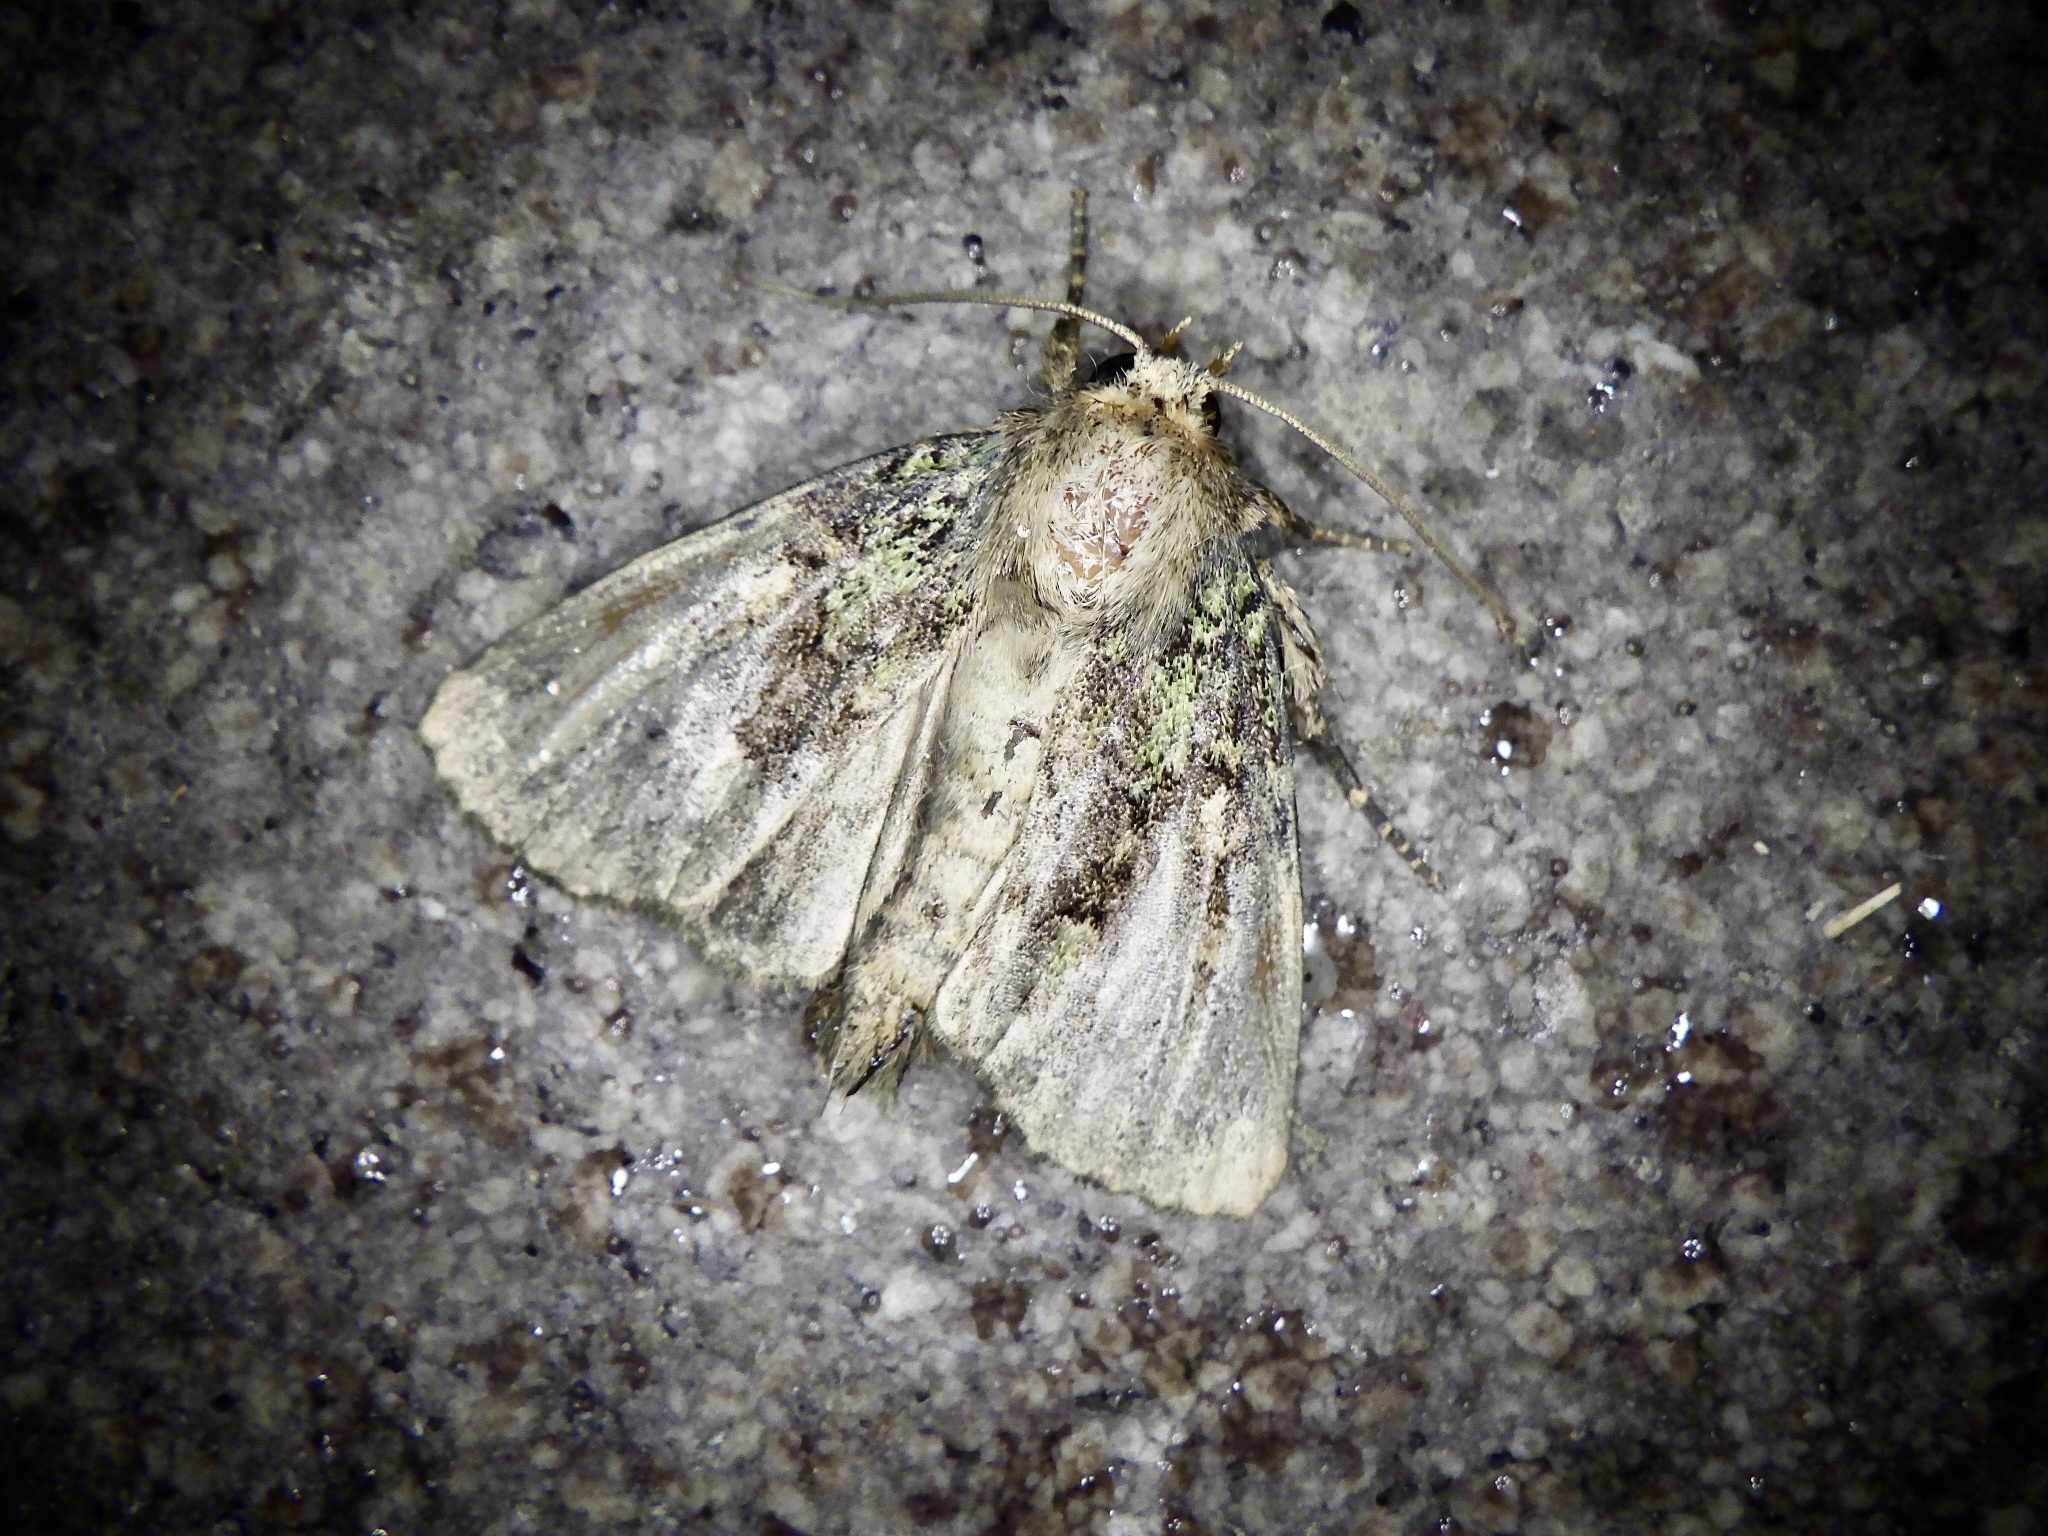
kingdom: Animalia
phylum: Arthropoda
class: Insecta
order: Lepidoptera
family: Noctuidae
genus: Atrachea
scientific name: Atrachea nitens
